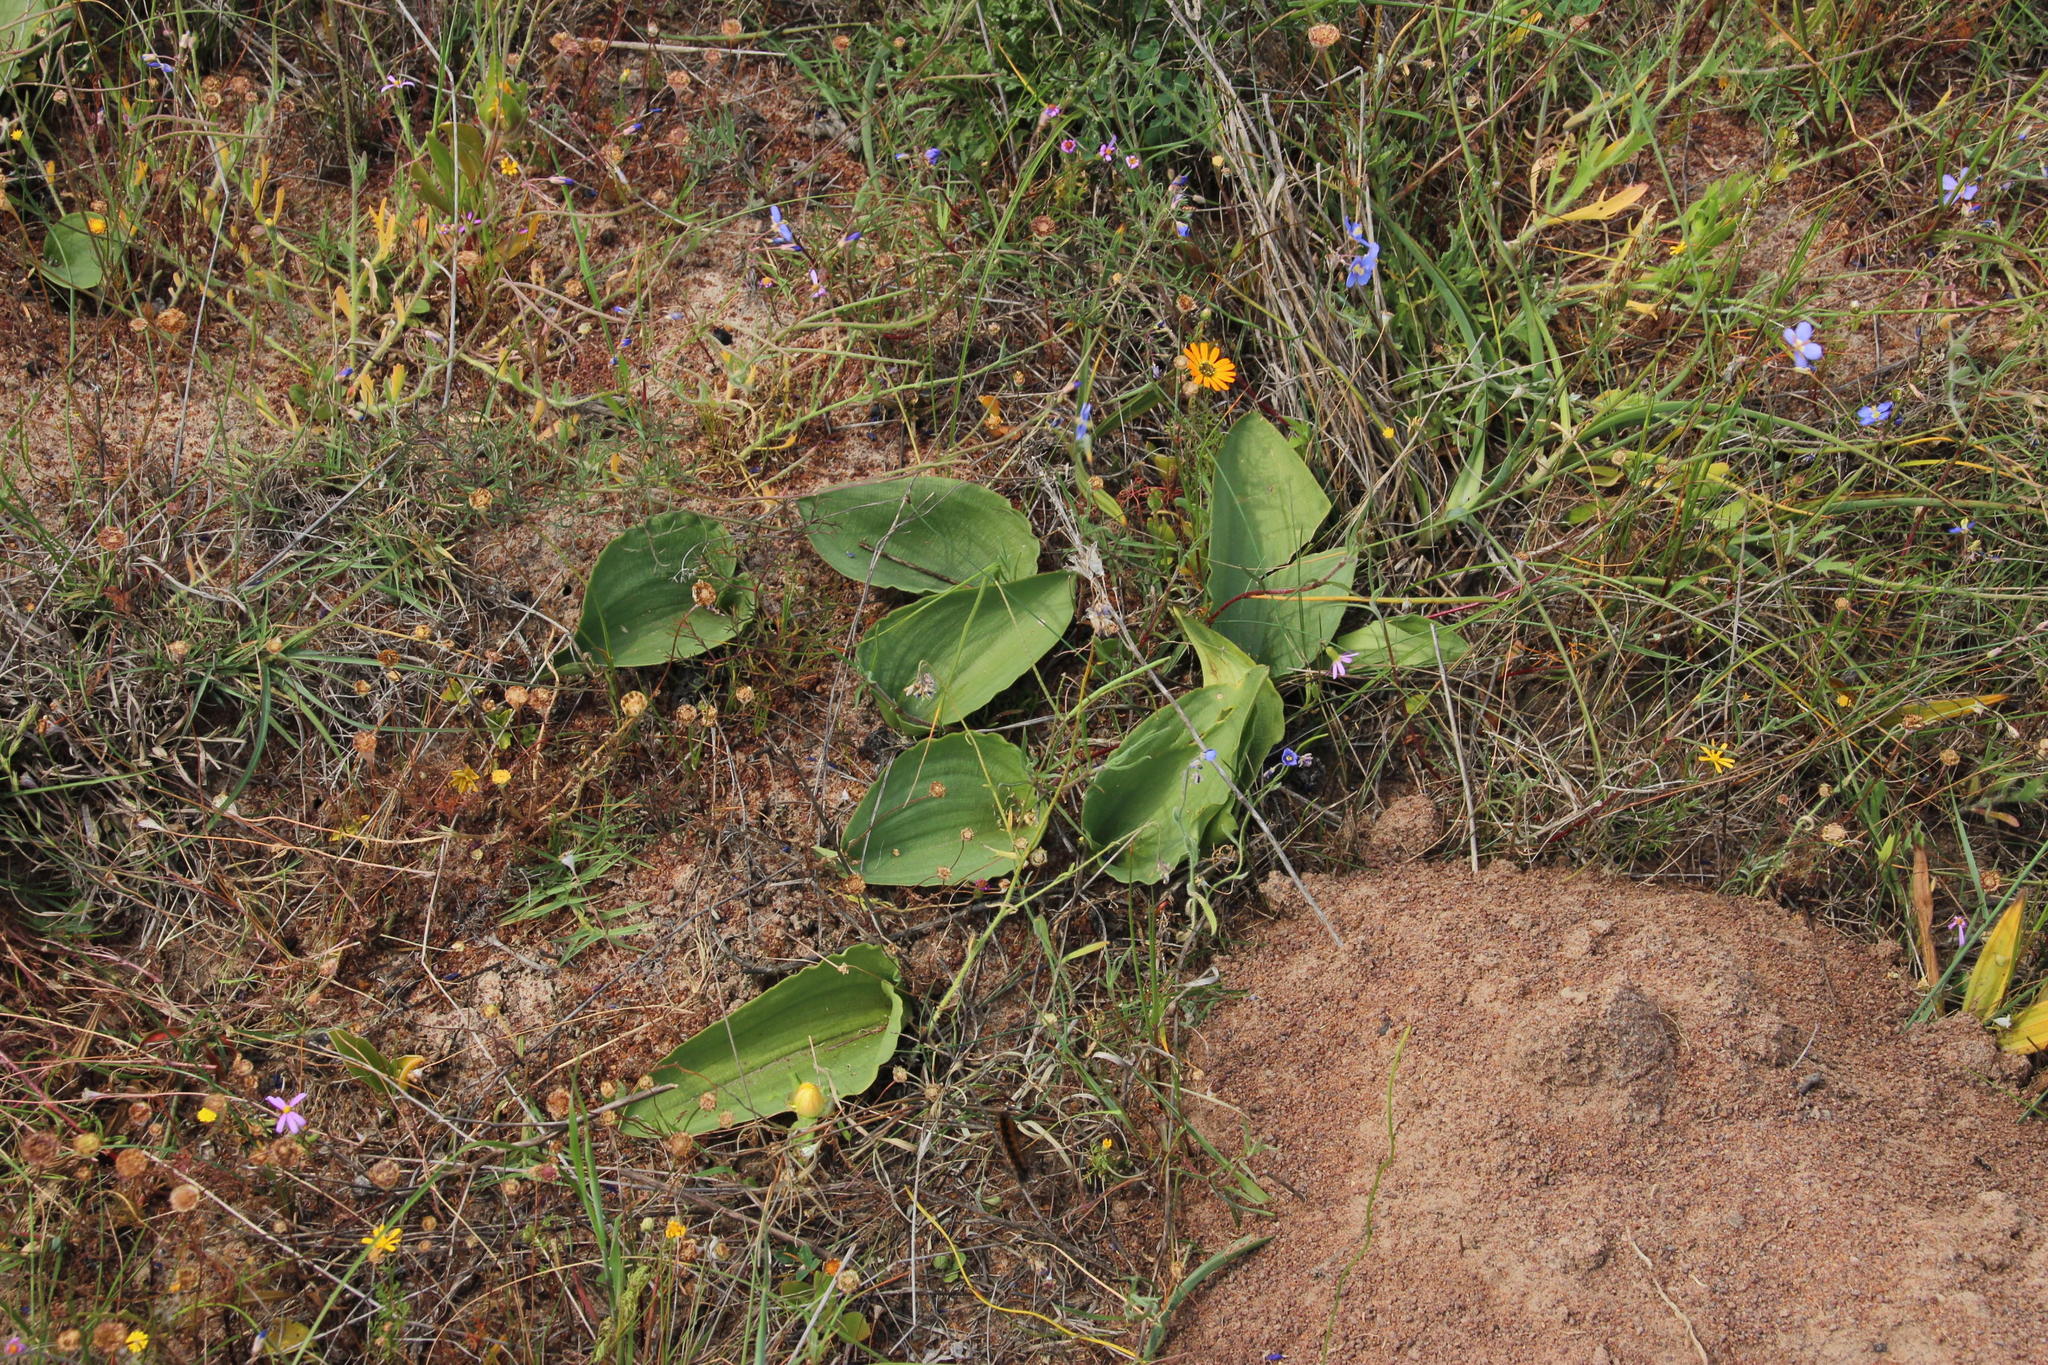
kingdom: Plantae
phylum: Tracheophyta
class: Liliopsida
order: Asparagales
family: Asparagaceae
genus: Eriospermum
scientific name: Eriospermum capense
